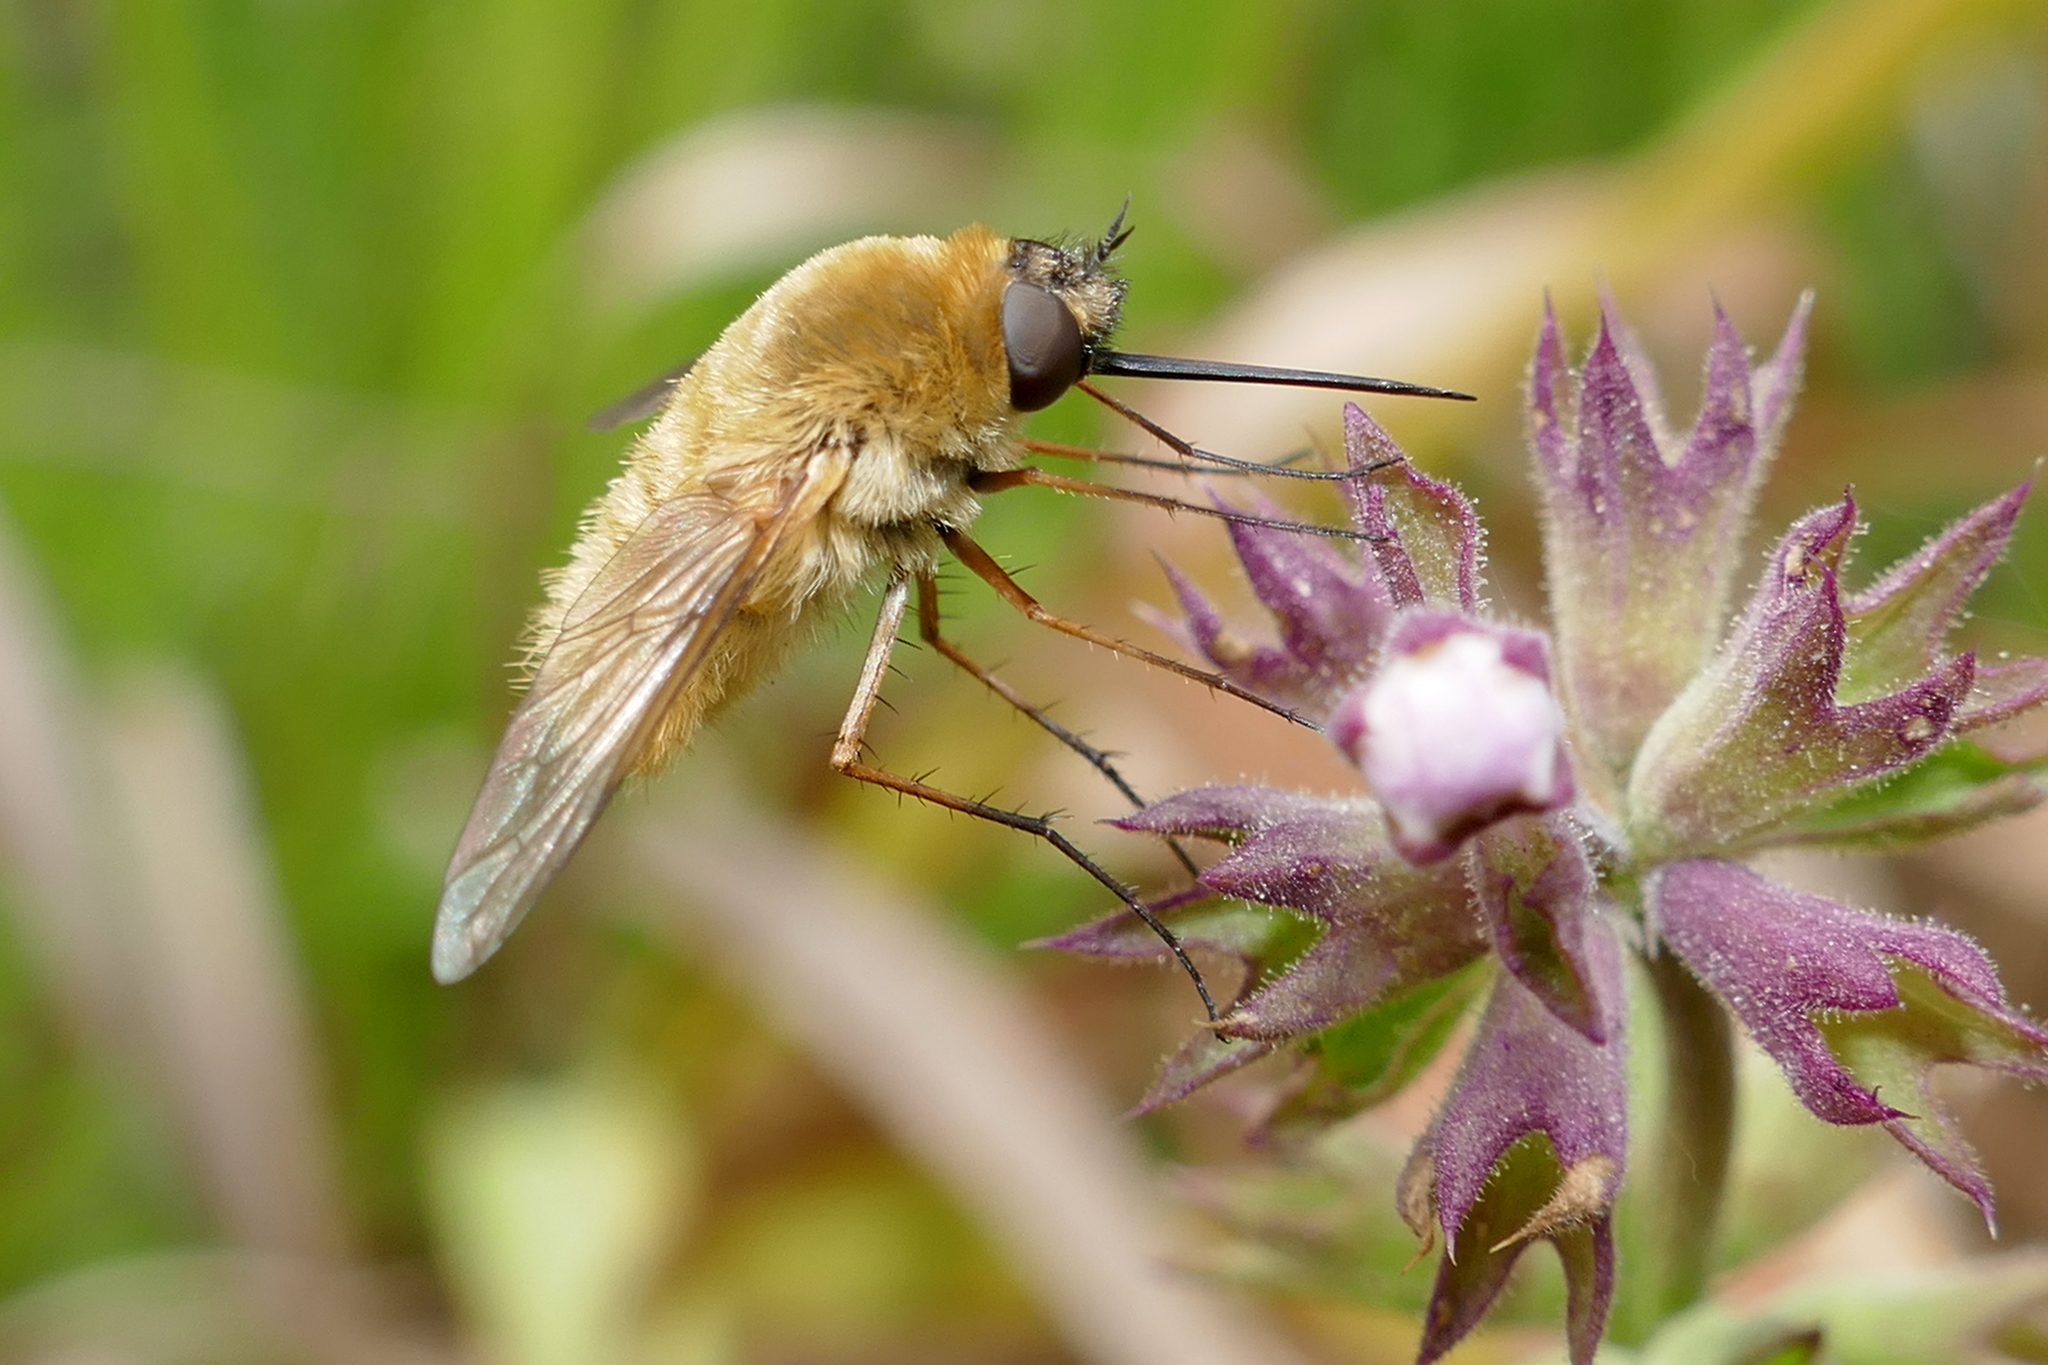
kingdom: Animalia
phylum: Arthropoda
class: Insecta
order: Diptera
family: Bombyliidae
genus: Systoechus
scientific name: Systoechus solitus
